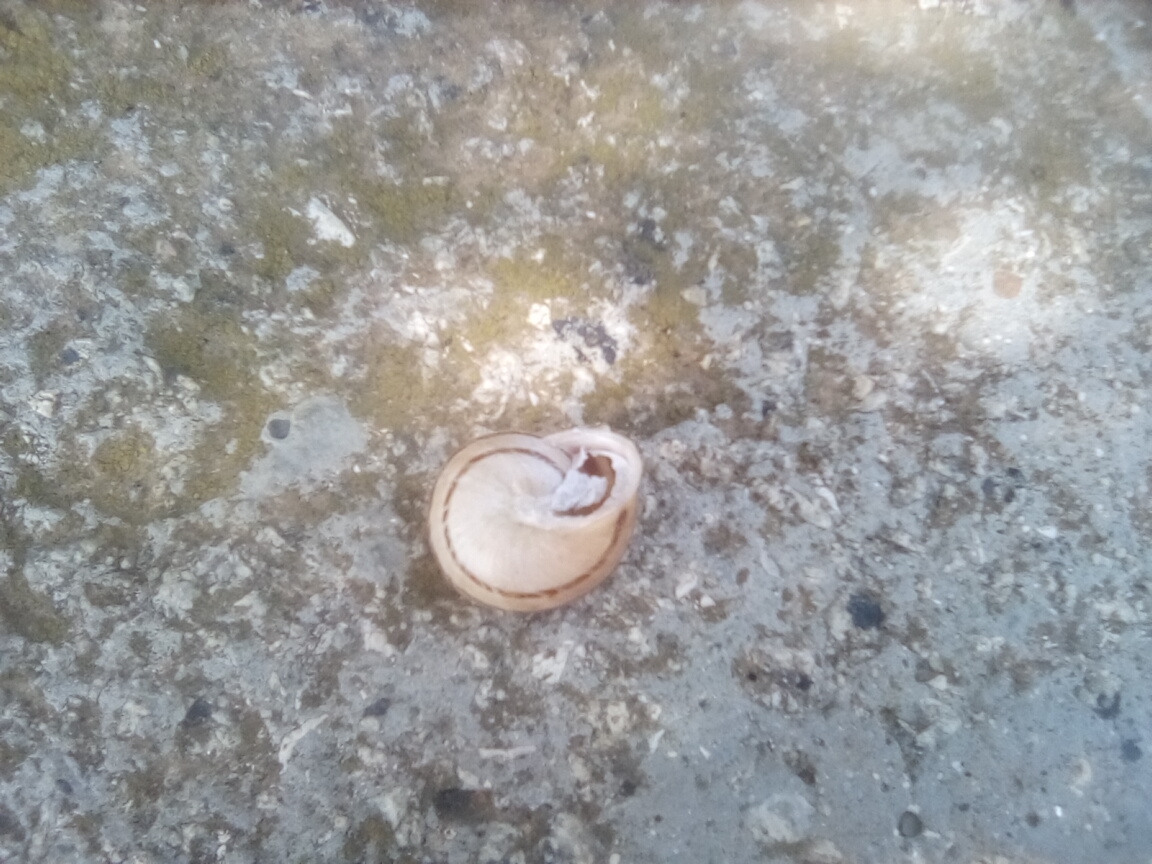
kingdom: Animalia
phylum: Mollusca
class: Gastropoda
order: Stylommatophora
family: Helicidae
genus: Eobania
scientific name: Eobania vermiculata
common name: Chocolateband snail
